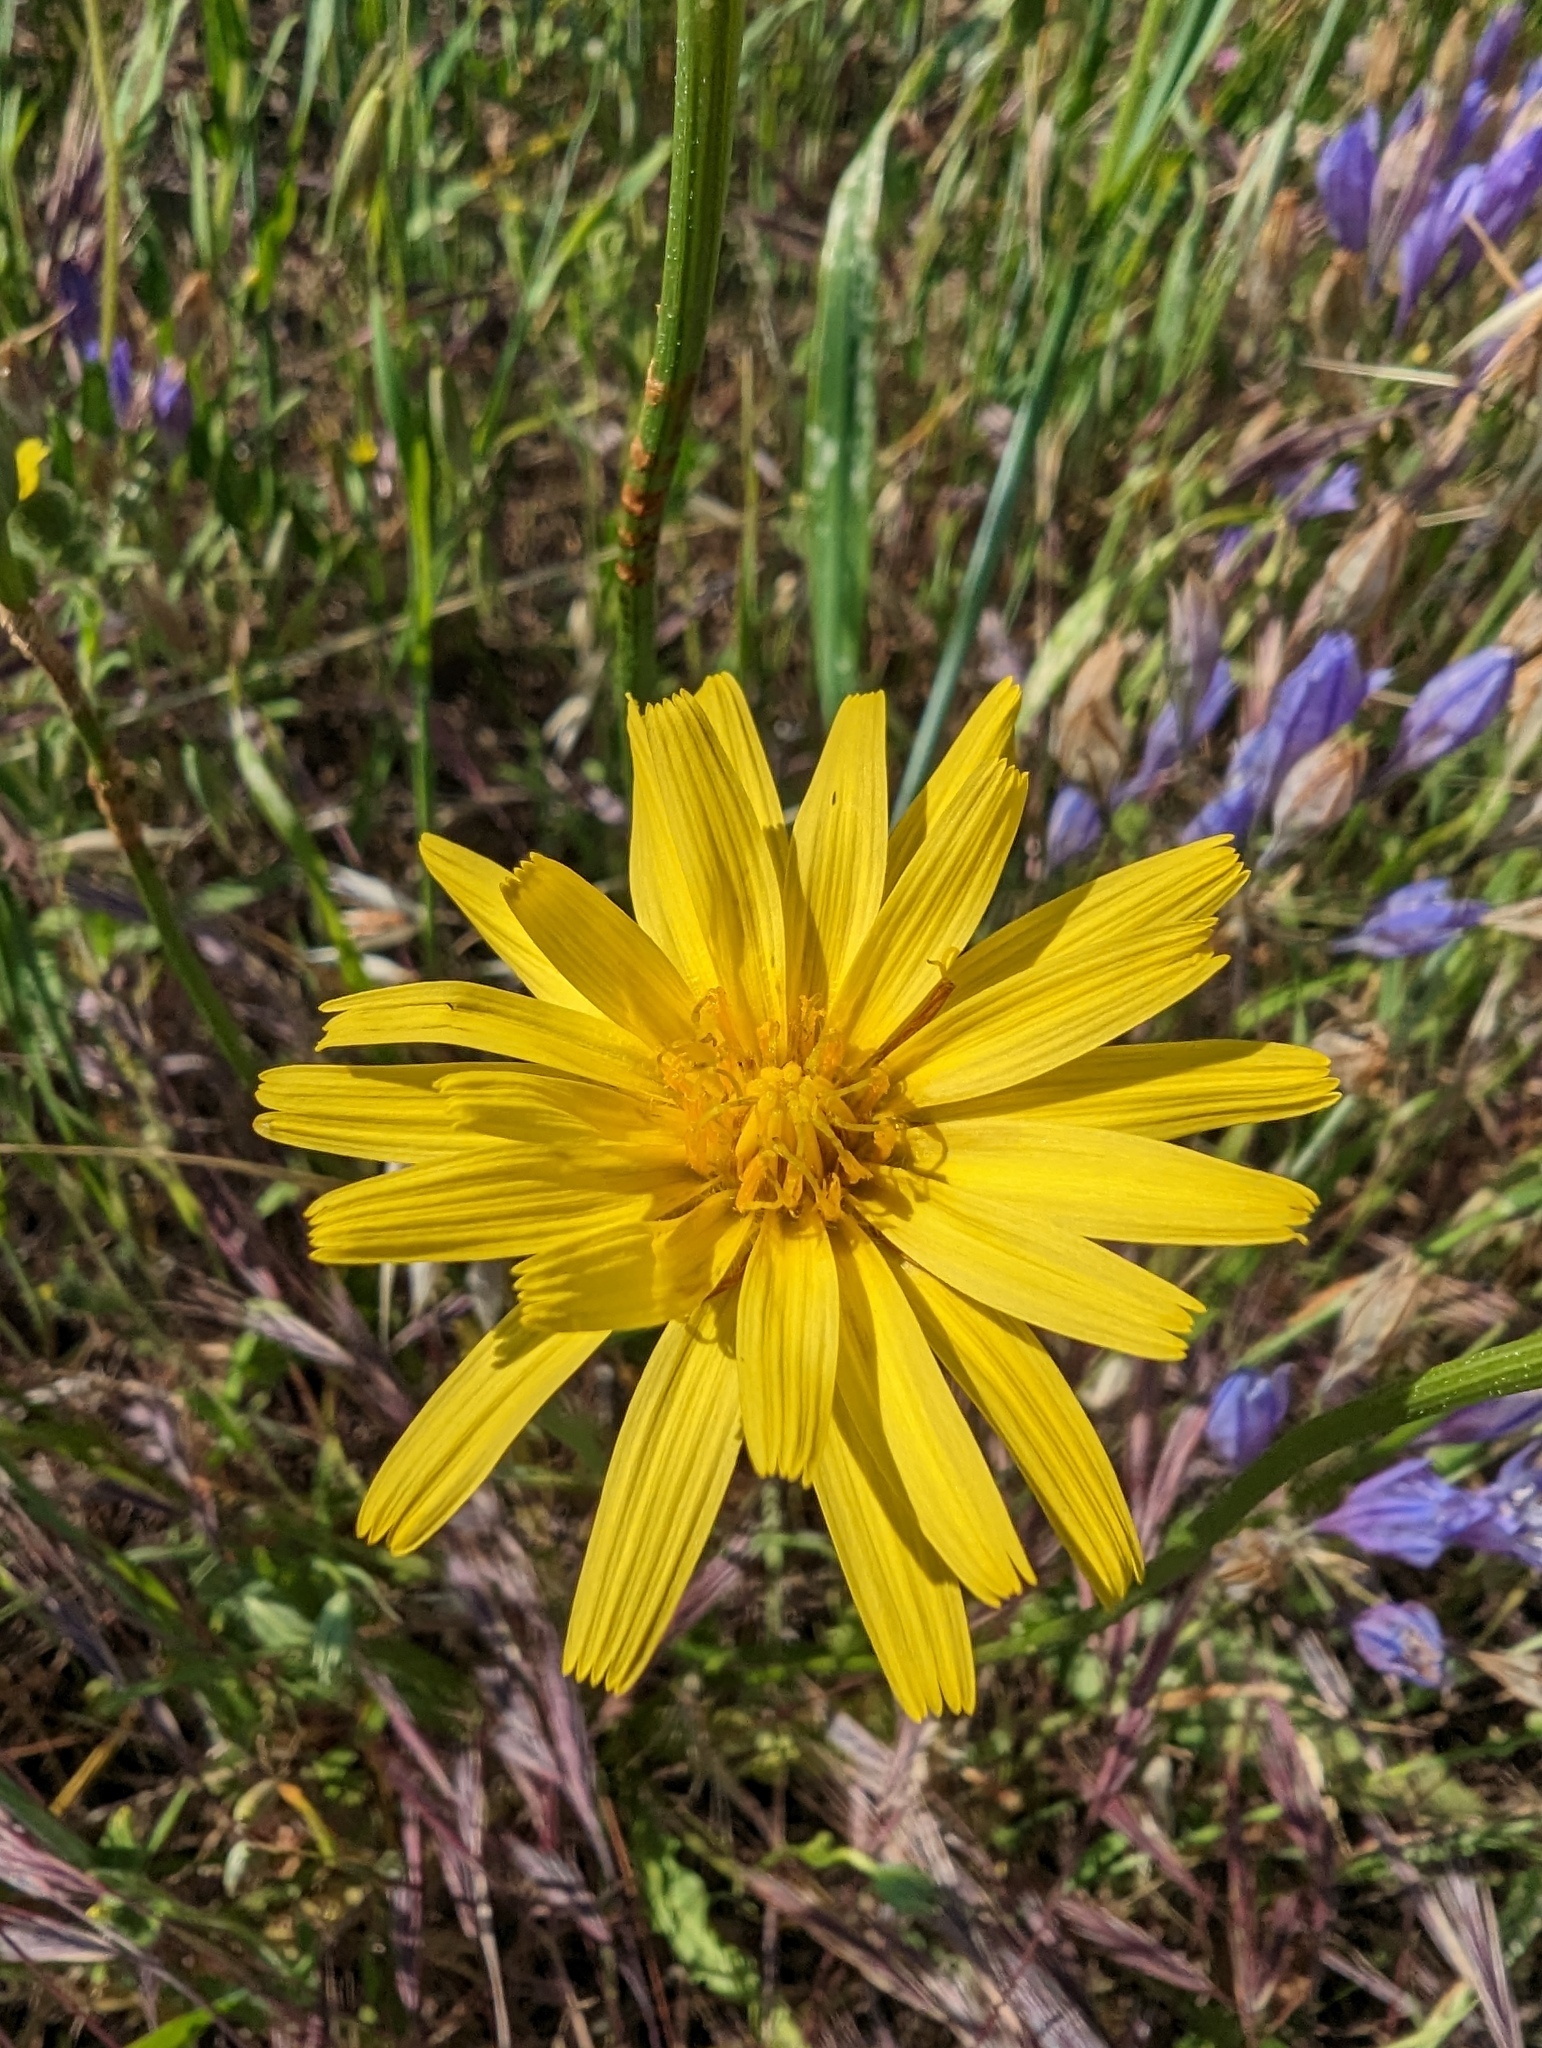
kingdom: Plantae
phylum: Tracheophyta
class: Magnoliopsida
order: Asterales
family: Asteraceae
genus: Microseris
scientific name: Microseris sylvatica
